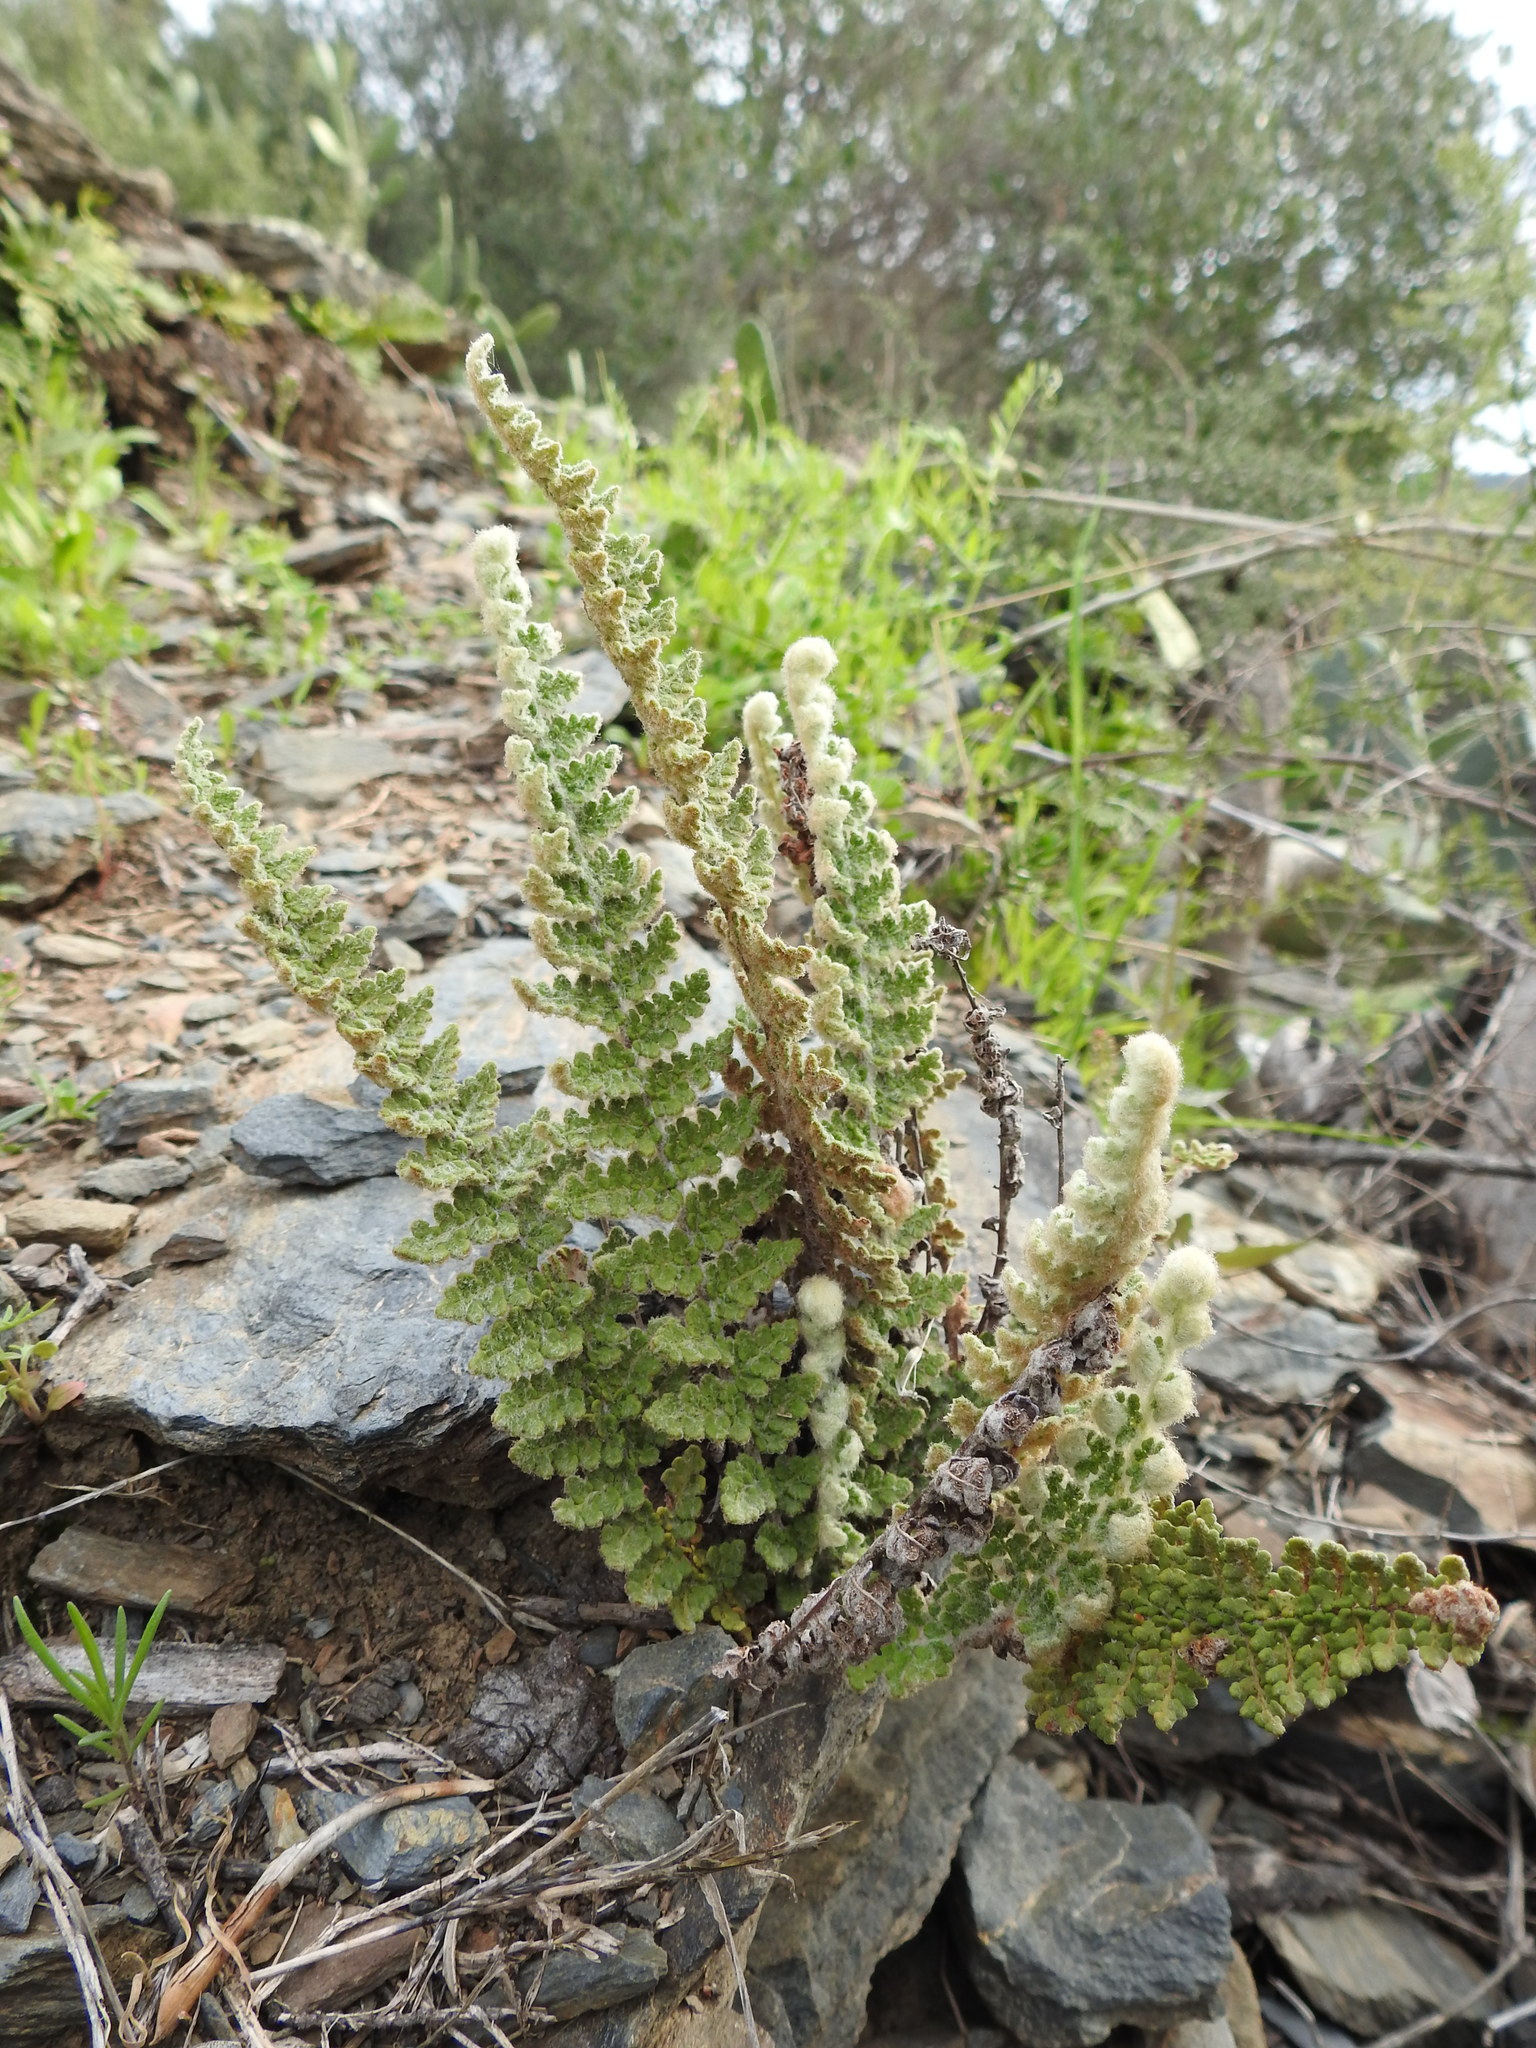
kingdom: Plantae
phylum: Tracheophyta
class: Polypodiopsida
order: Polypodiales
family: Pteridaceae
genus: Cosentinia
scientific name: Cosentinia vellea
